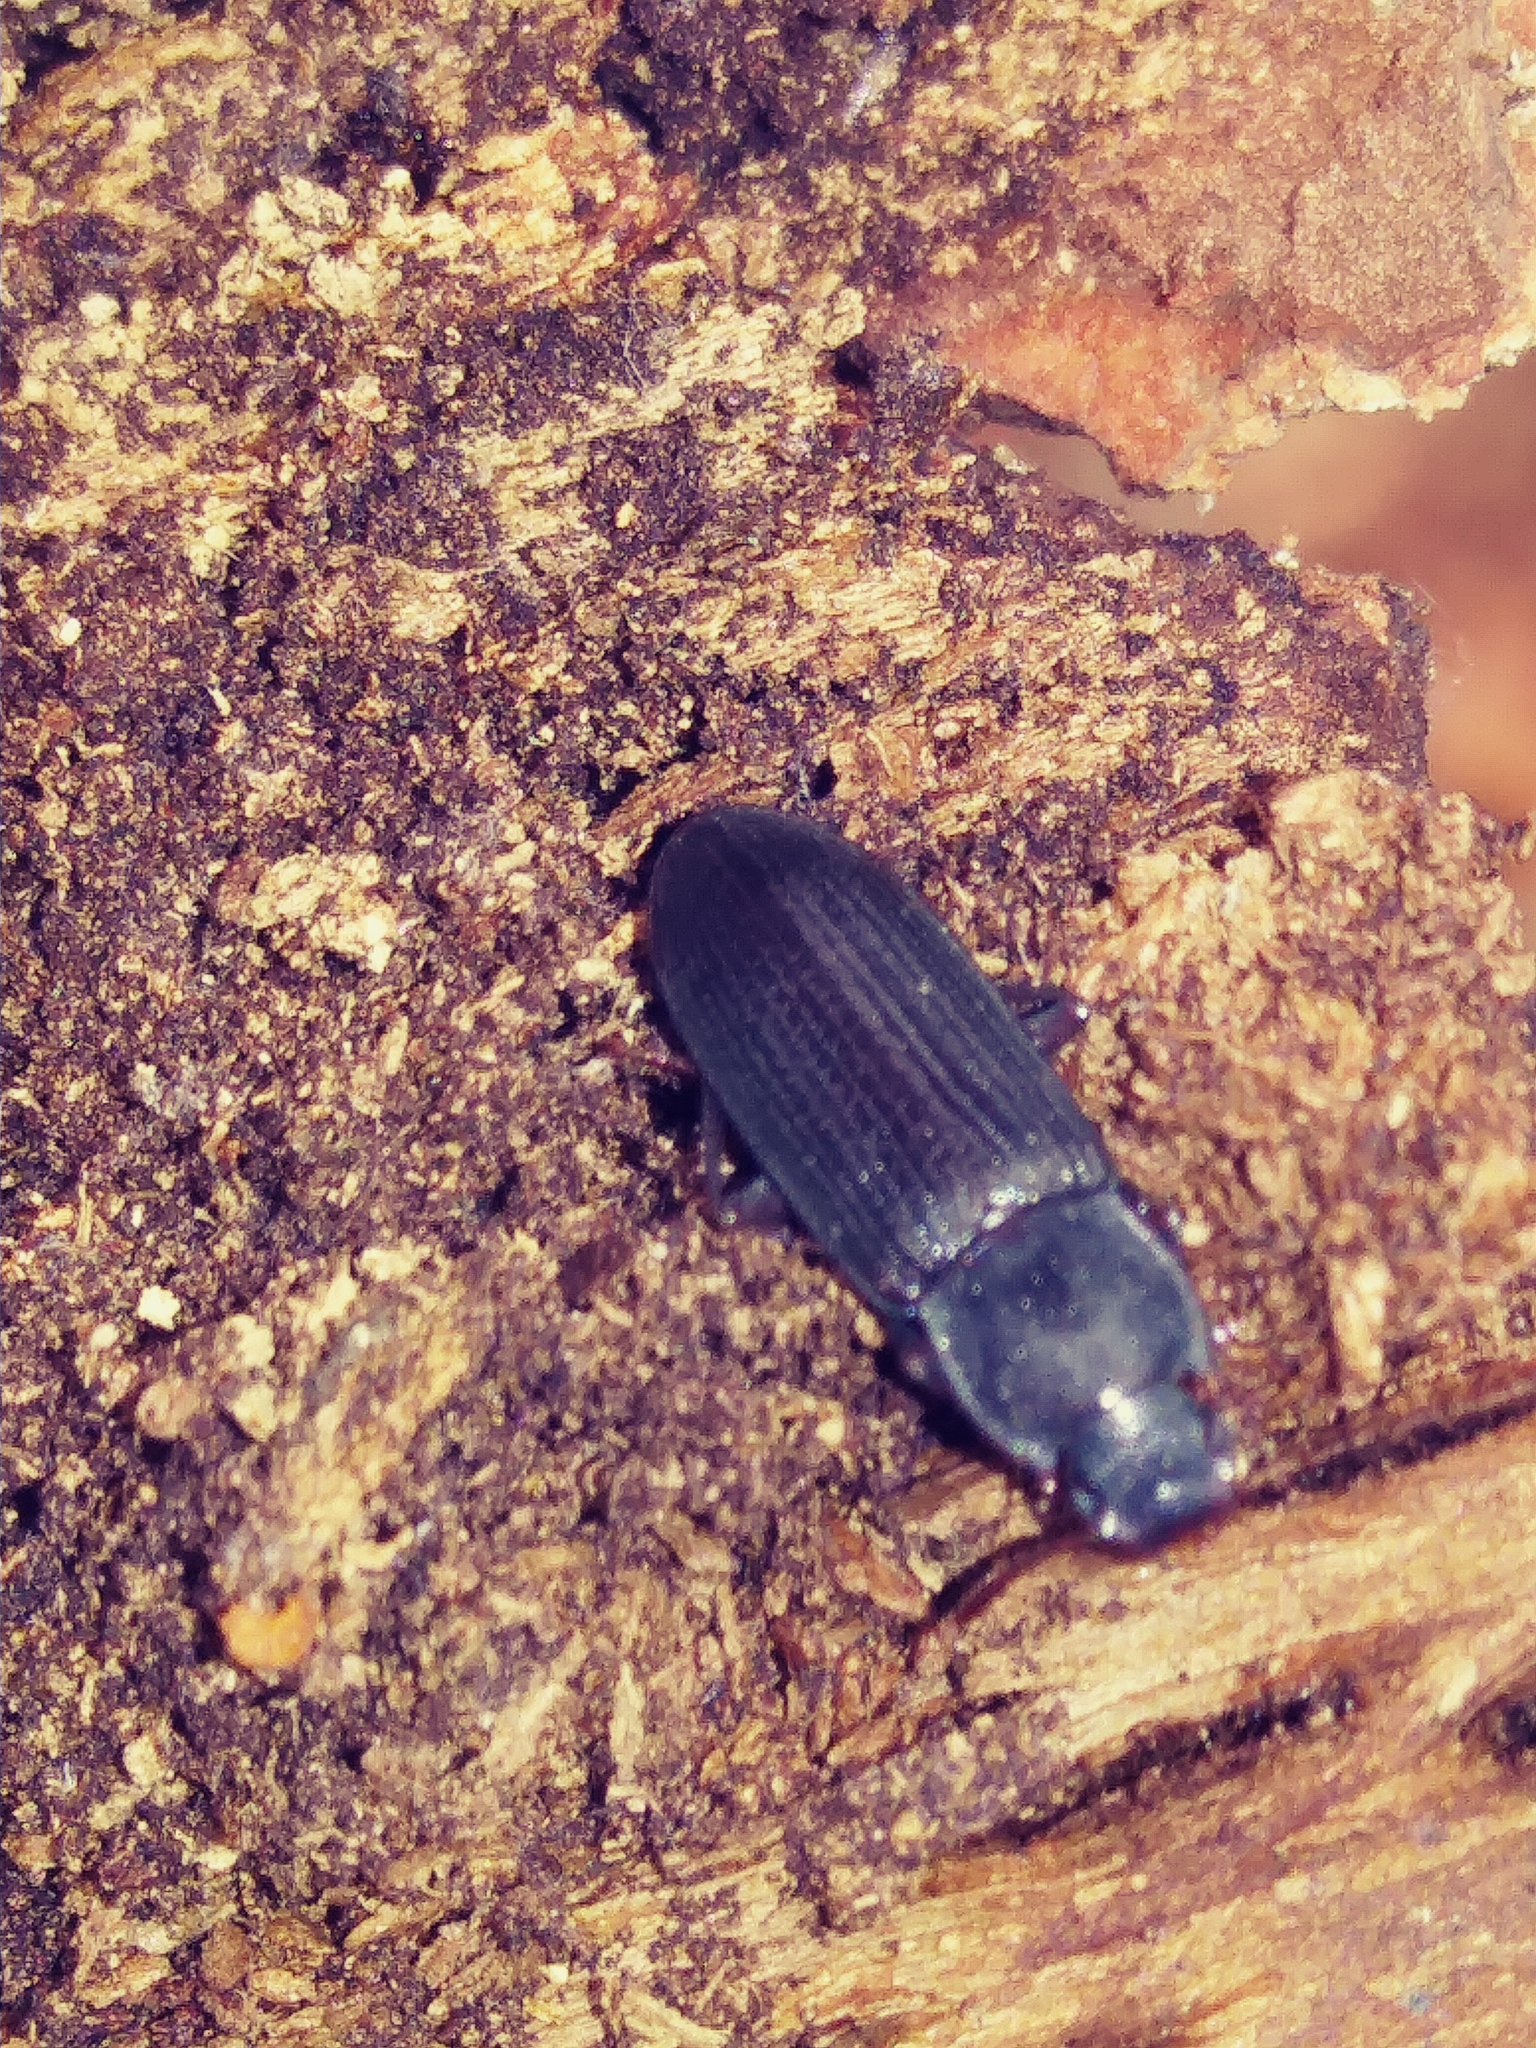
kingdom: Animalia
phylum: Arthropoda
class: Insecta
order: Coleoptera
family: Tenebrionidae
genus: Idiobates
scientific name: Idiobates castaneus
